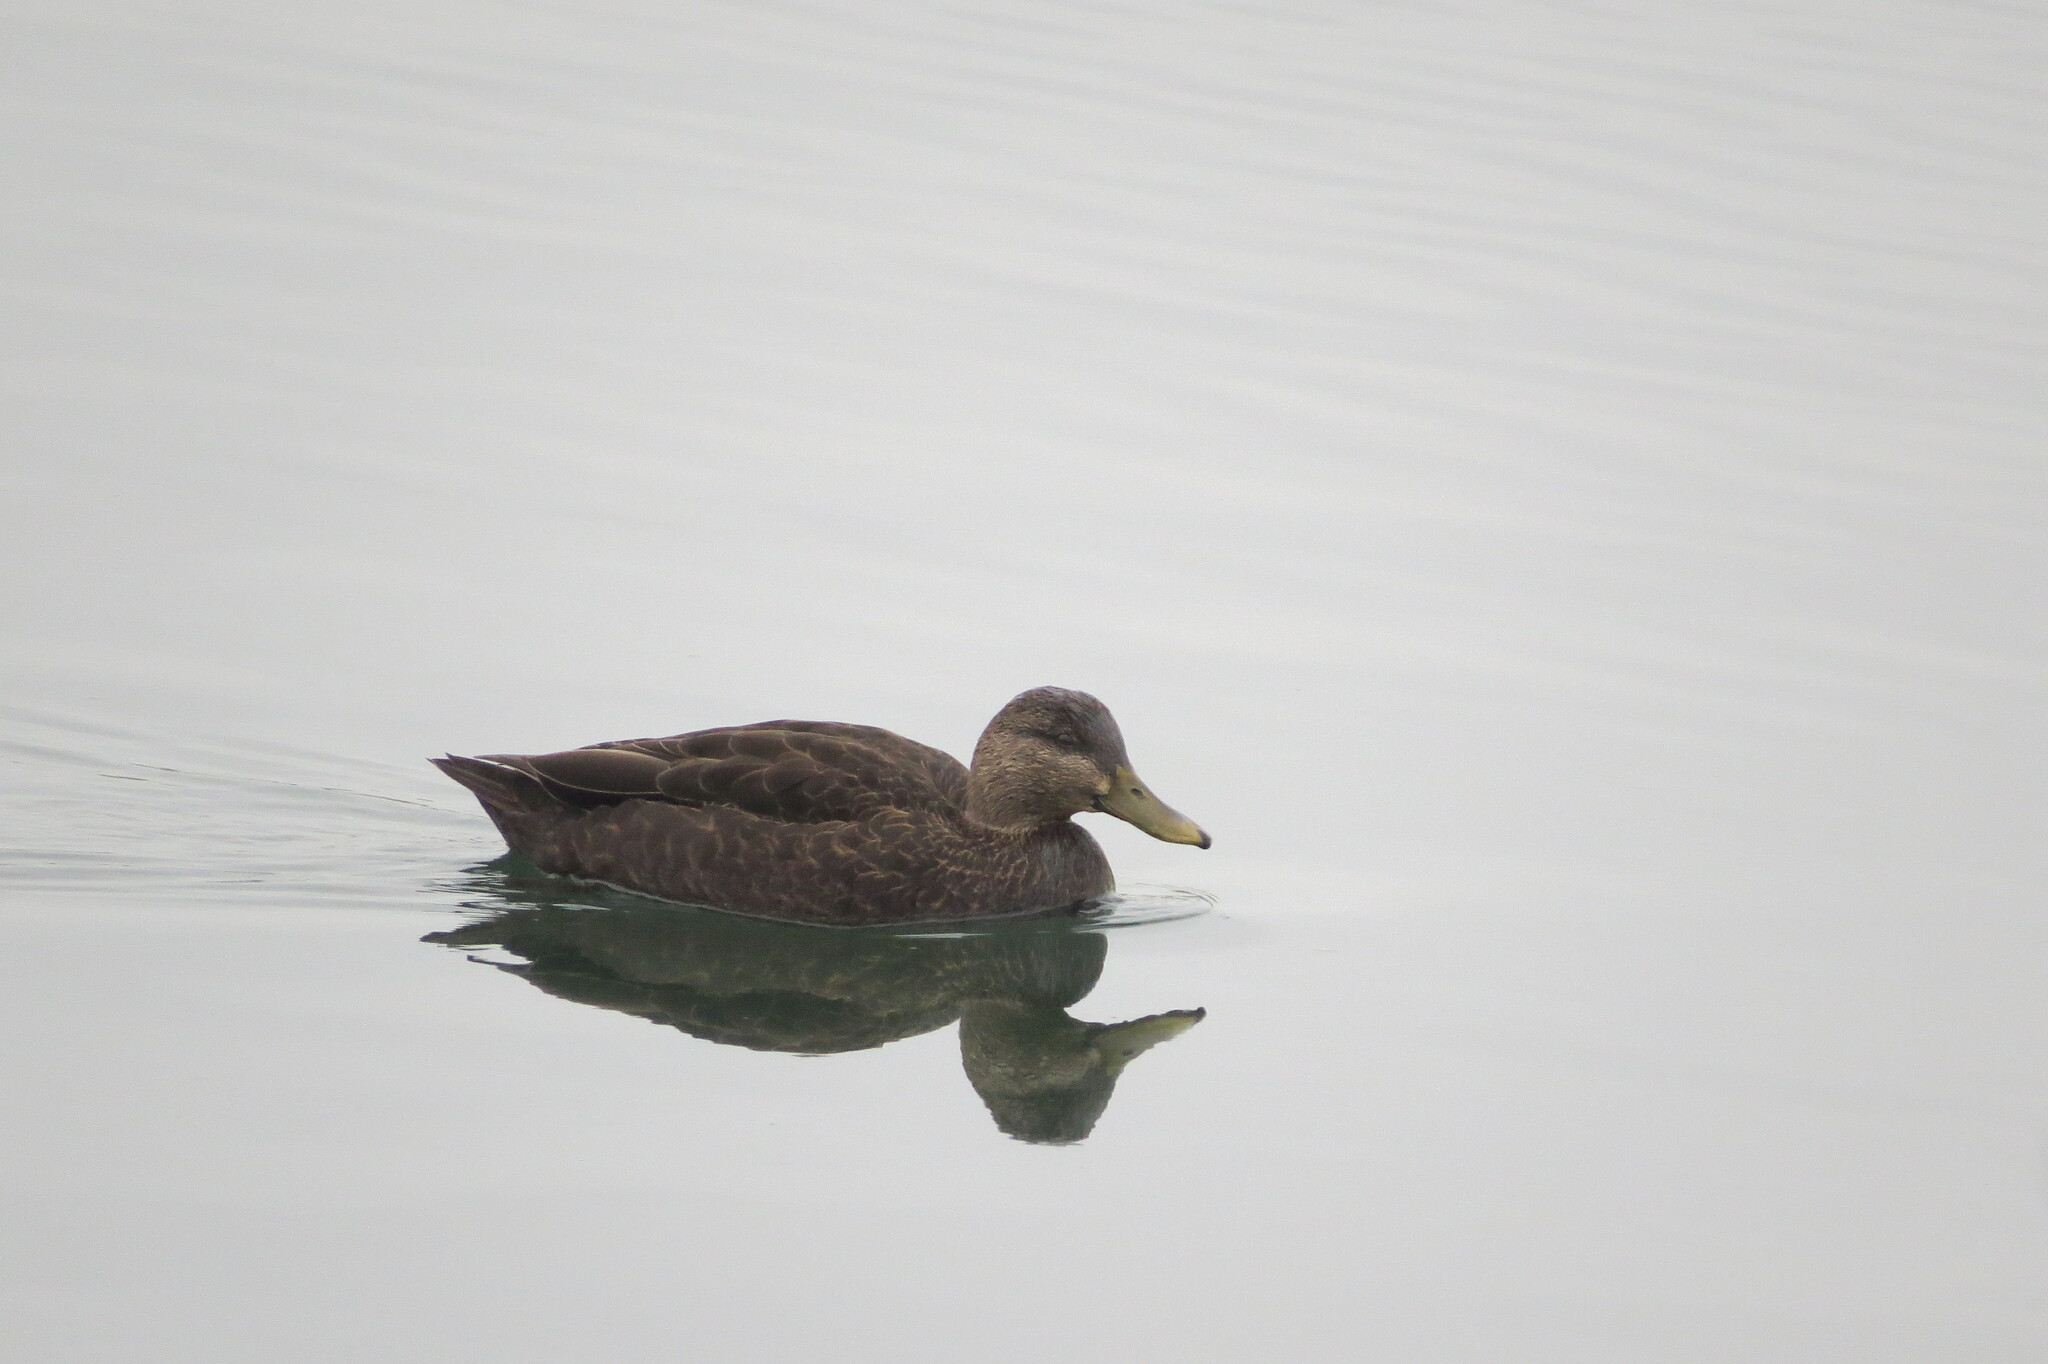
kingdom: Animalia
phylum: Chordata
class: Aves
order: Anseriformes
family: Anatidae
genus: Anas
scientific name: Anas rubripes
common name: American black duck
